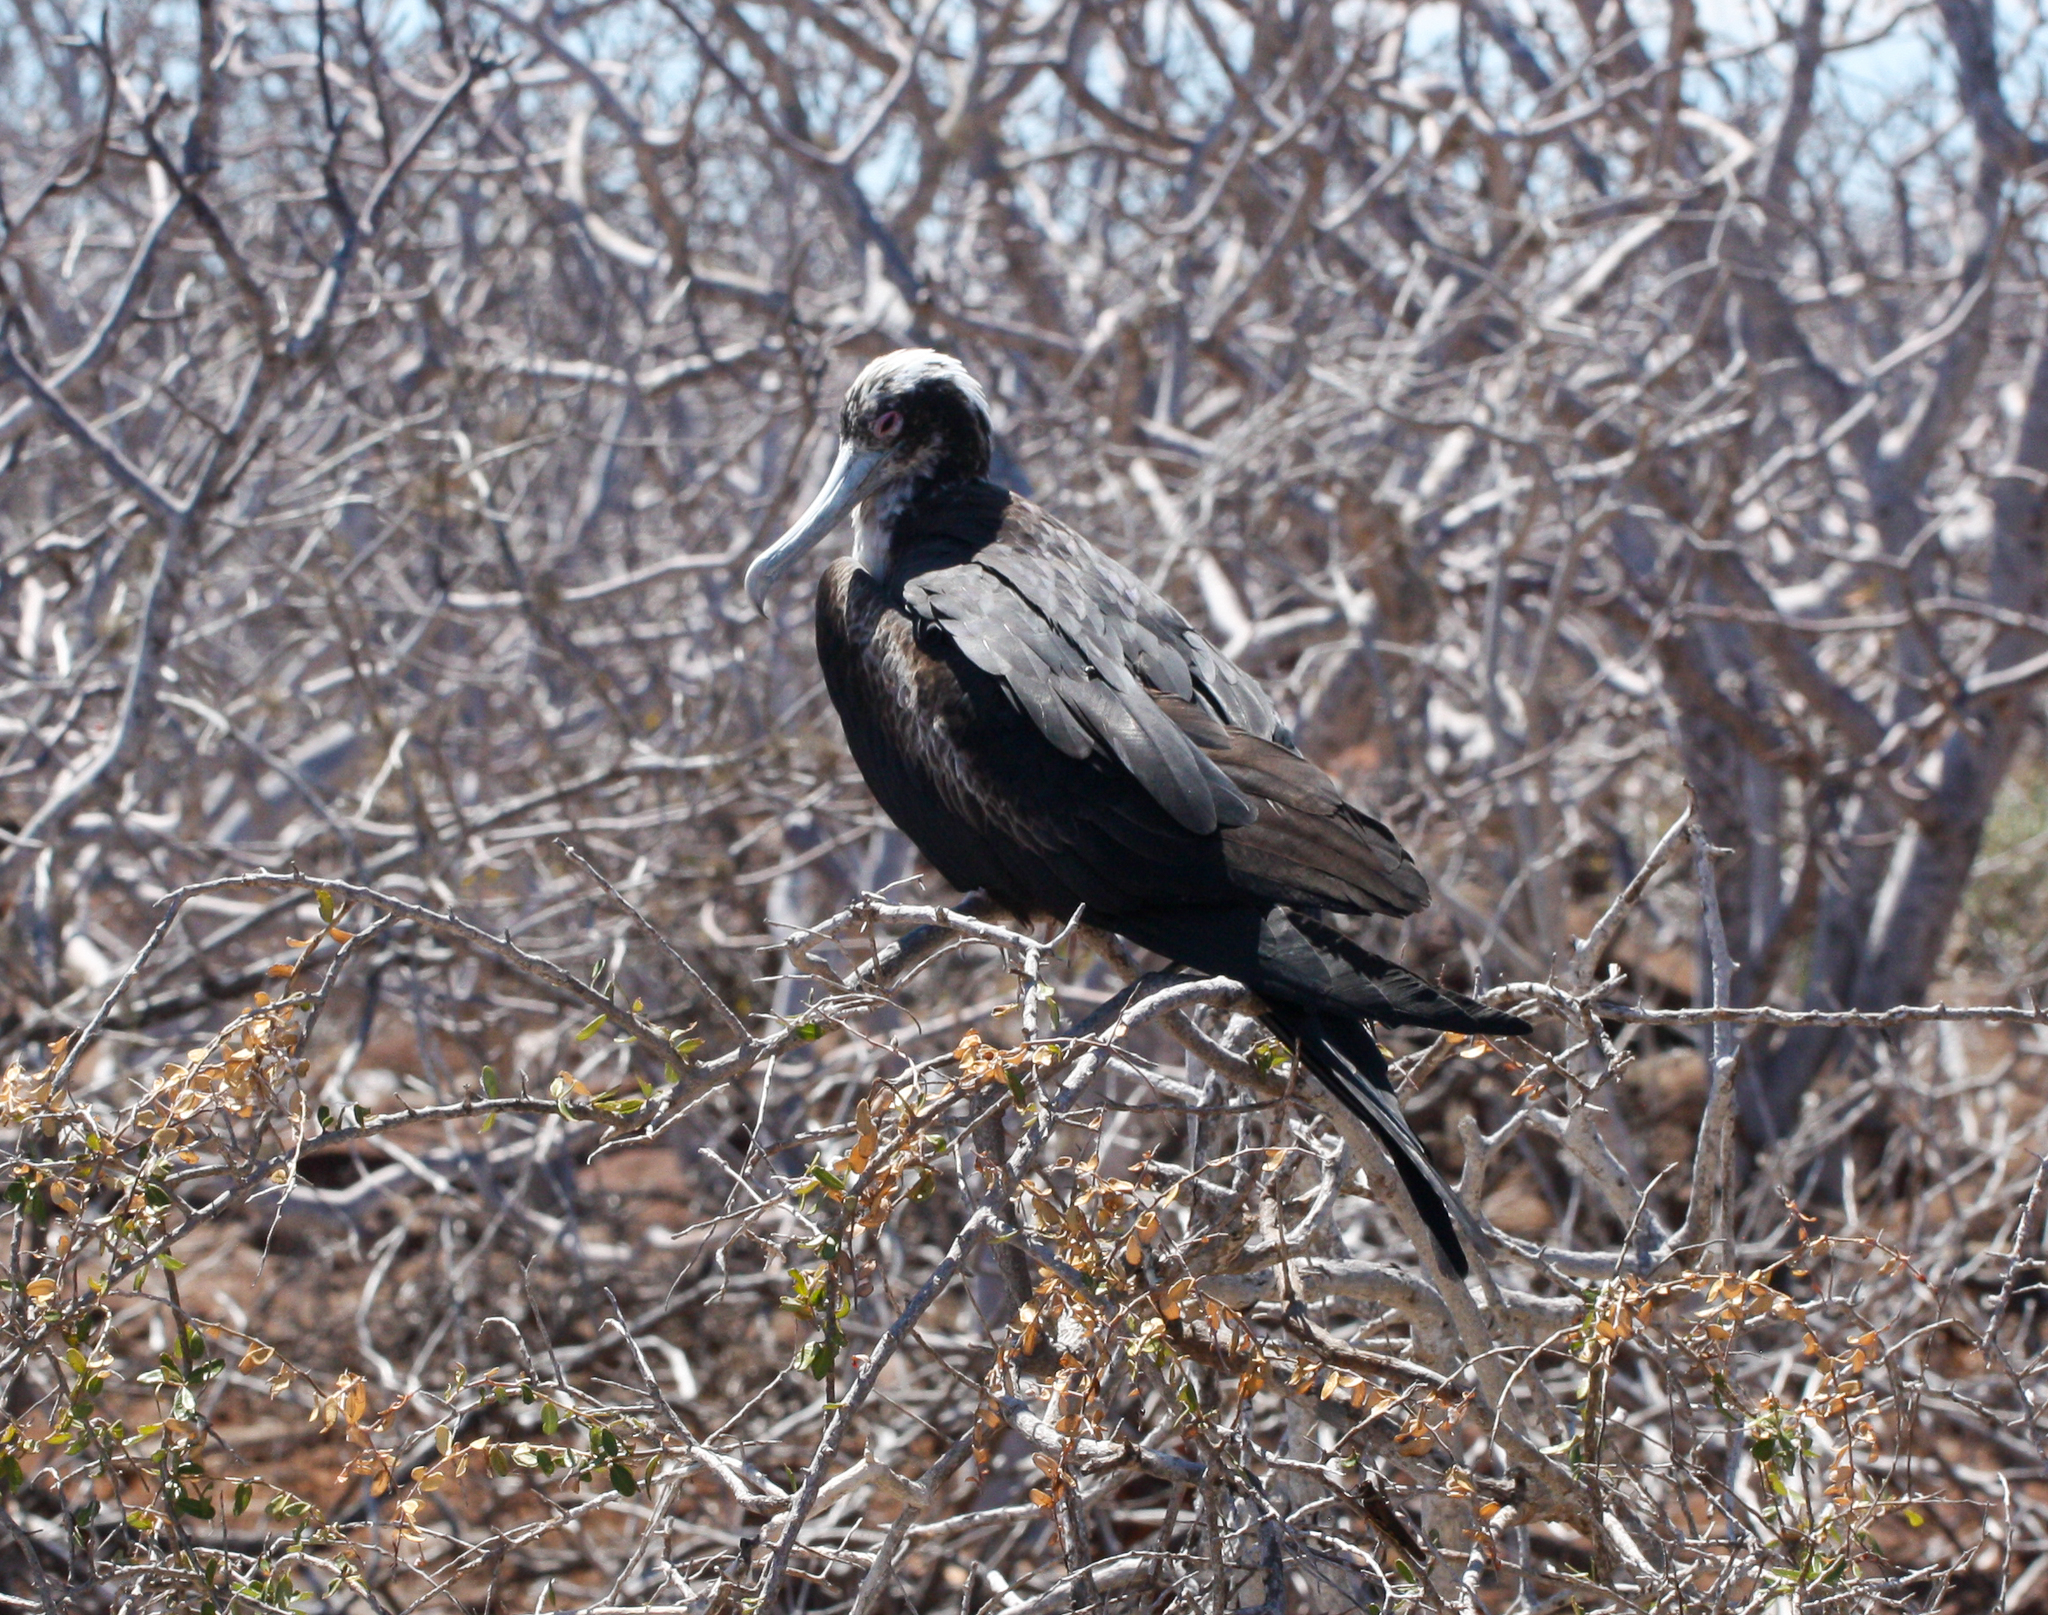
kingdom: Animalia
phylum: Chordata
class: Aves
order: Suliformes
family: Fregatidae
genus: Fregata
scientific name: Fregata minor
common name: Great frigatebird
